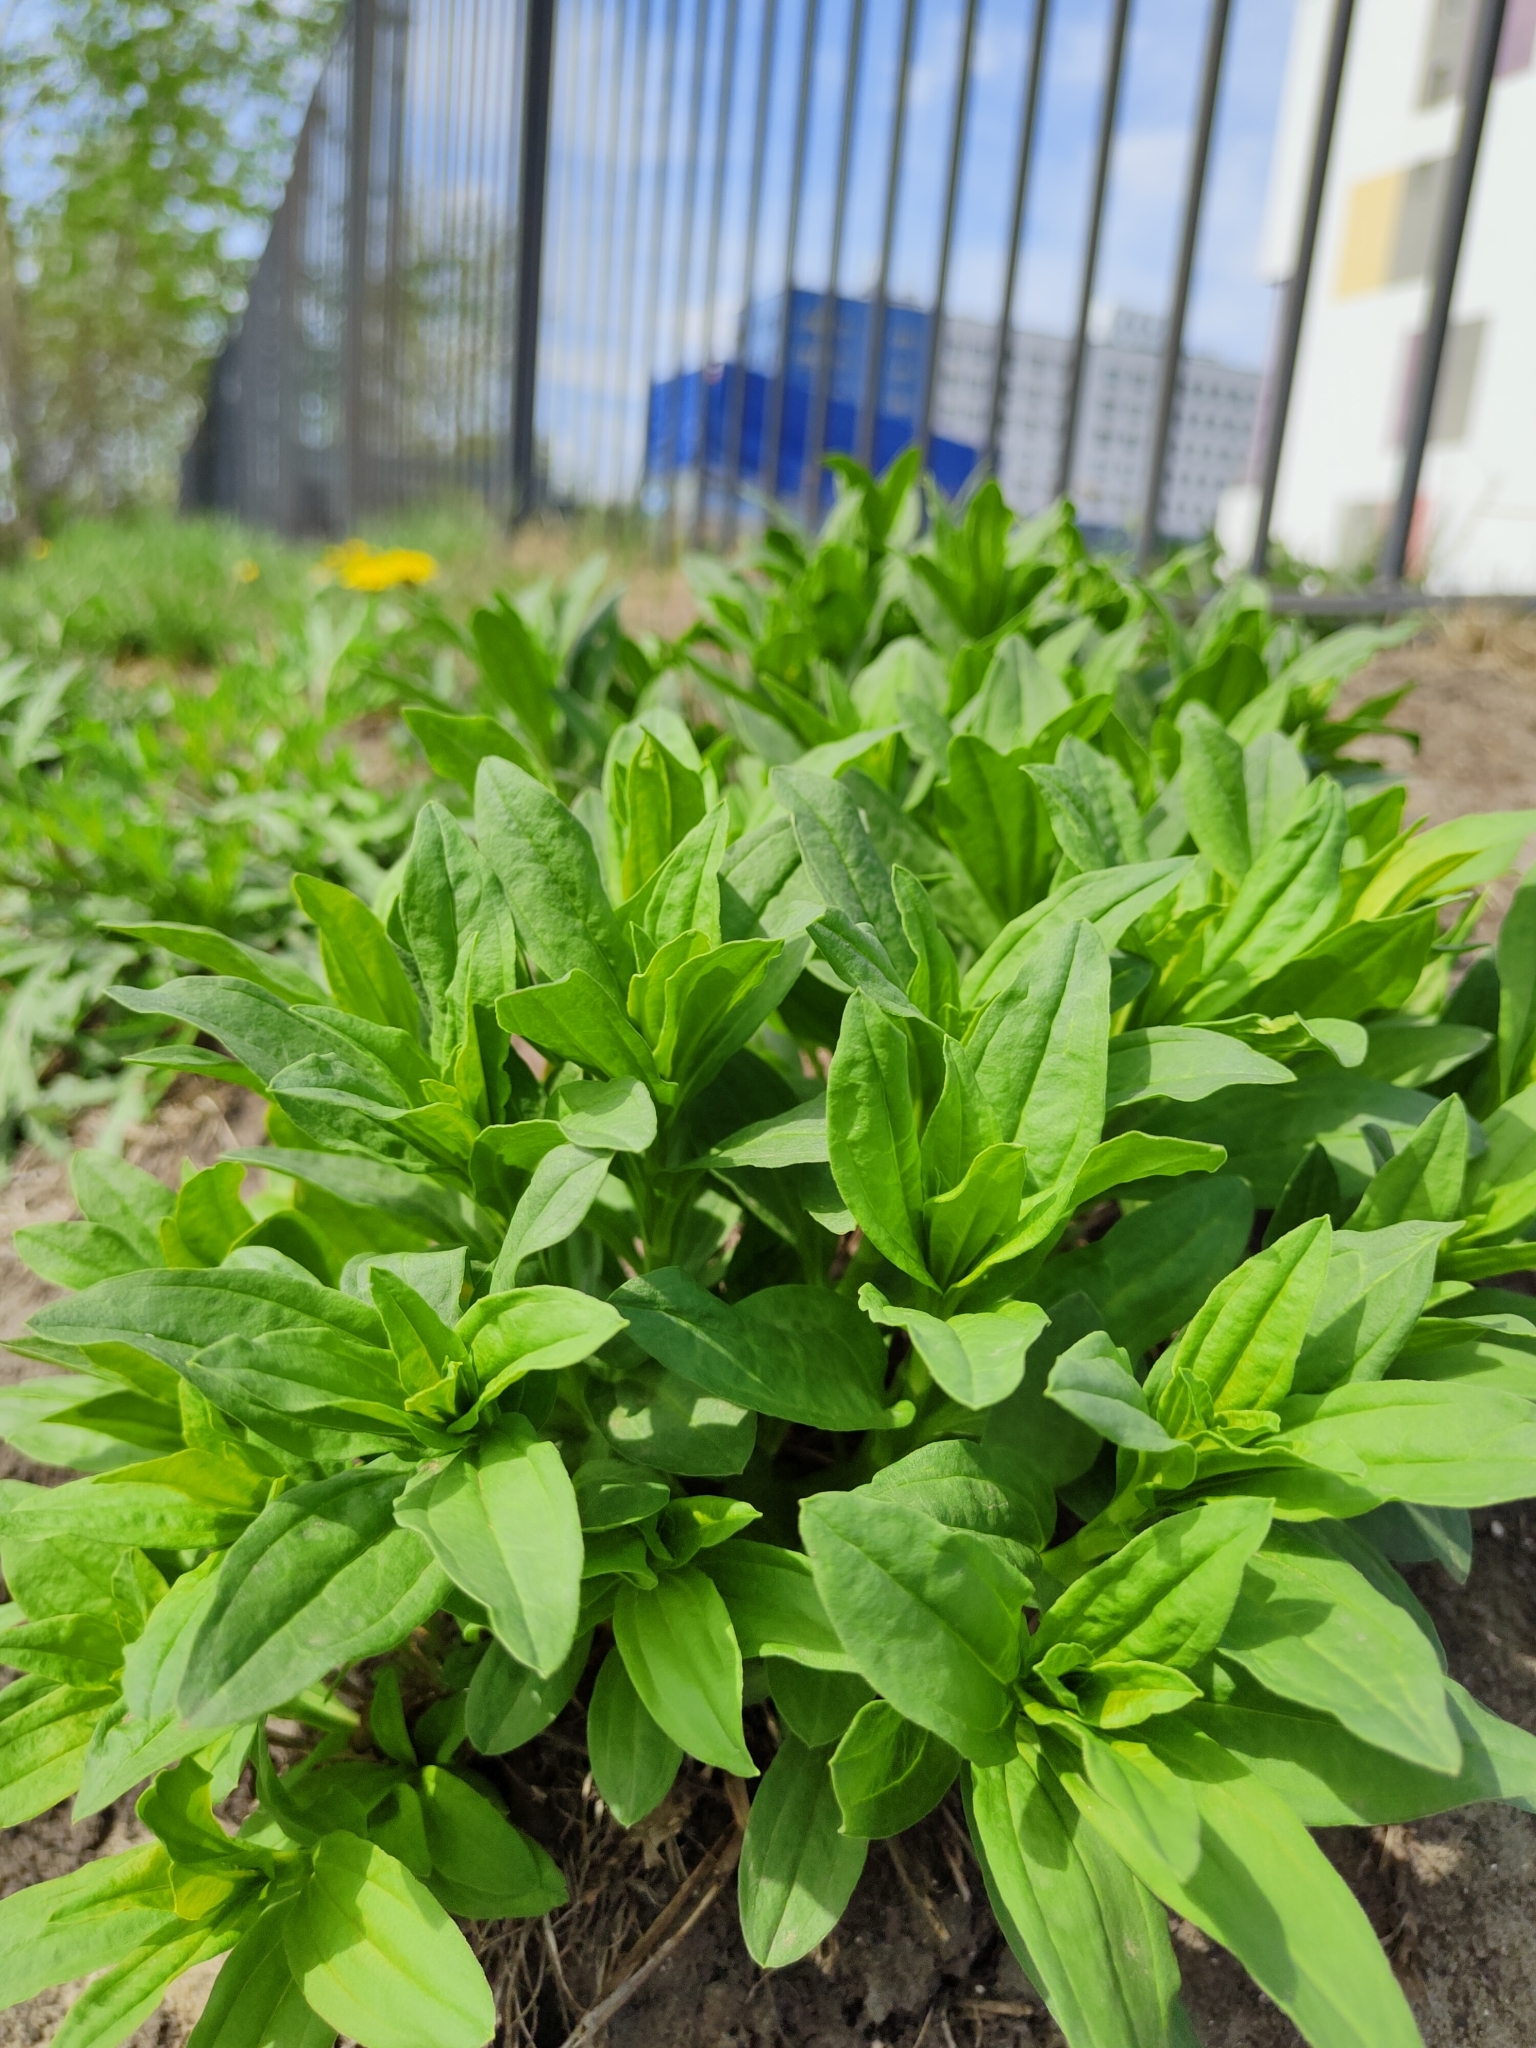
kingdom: Plantae
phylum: Tracheophyta
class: Magnoliopsida
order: Caryophyllales
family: Caryophyllaceae
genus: Saponaria
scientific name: Saponaria officinalis
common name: Soapwort
